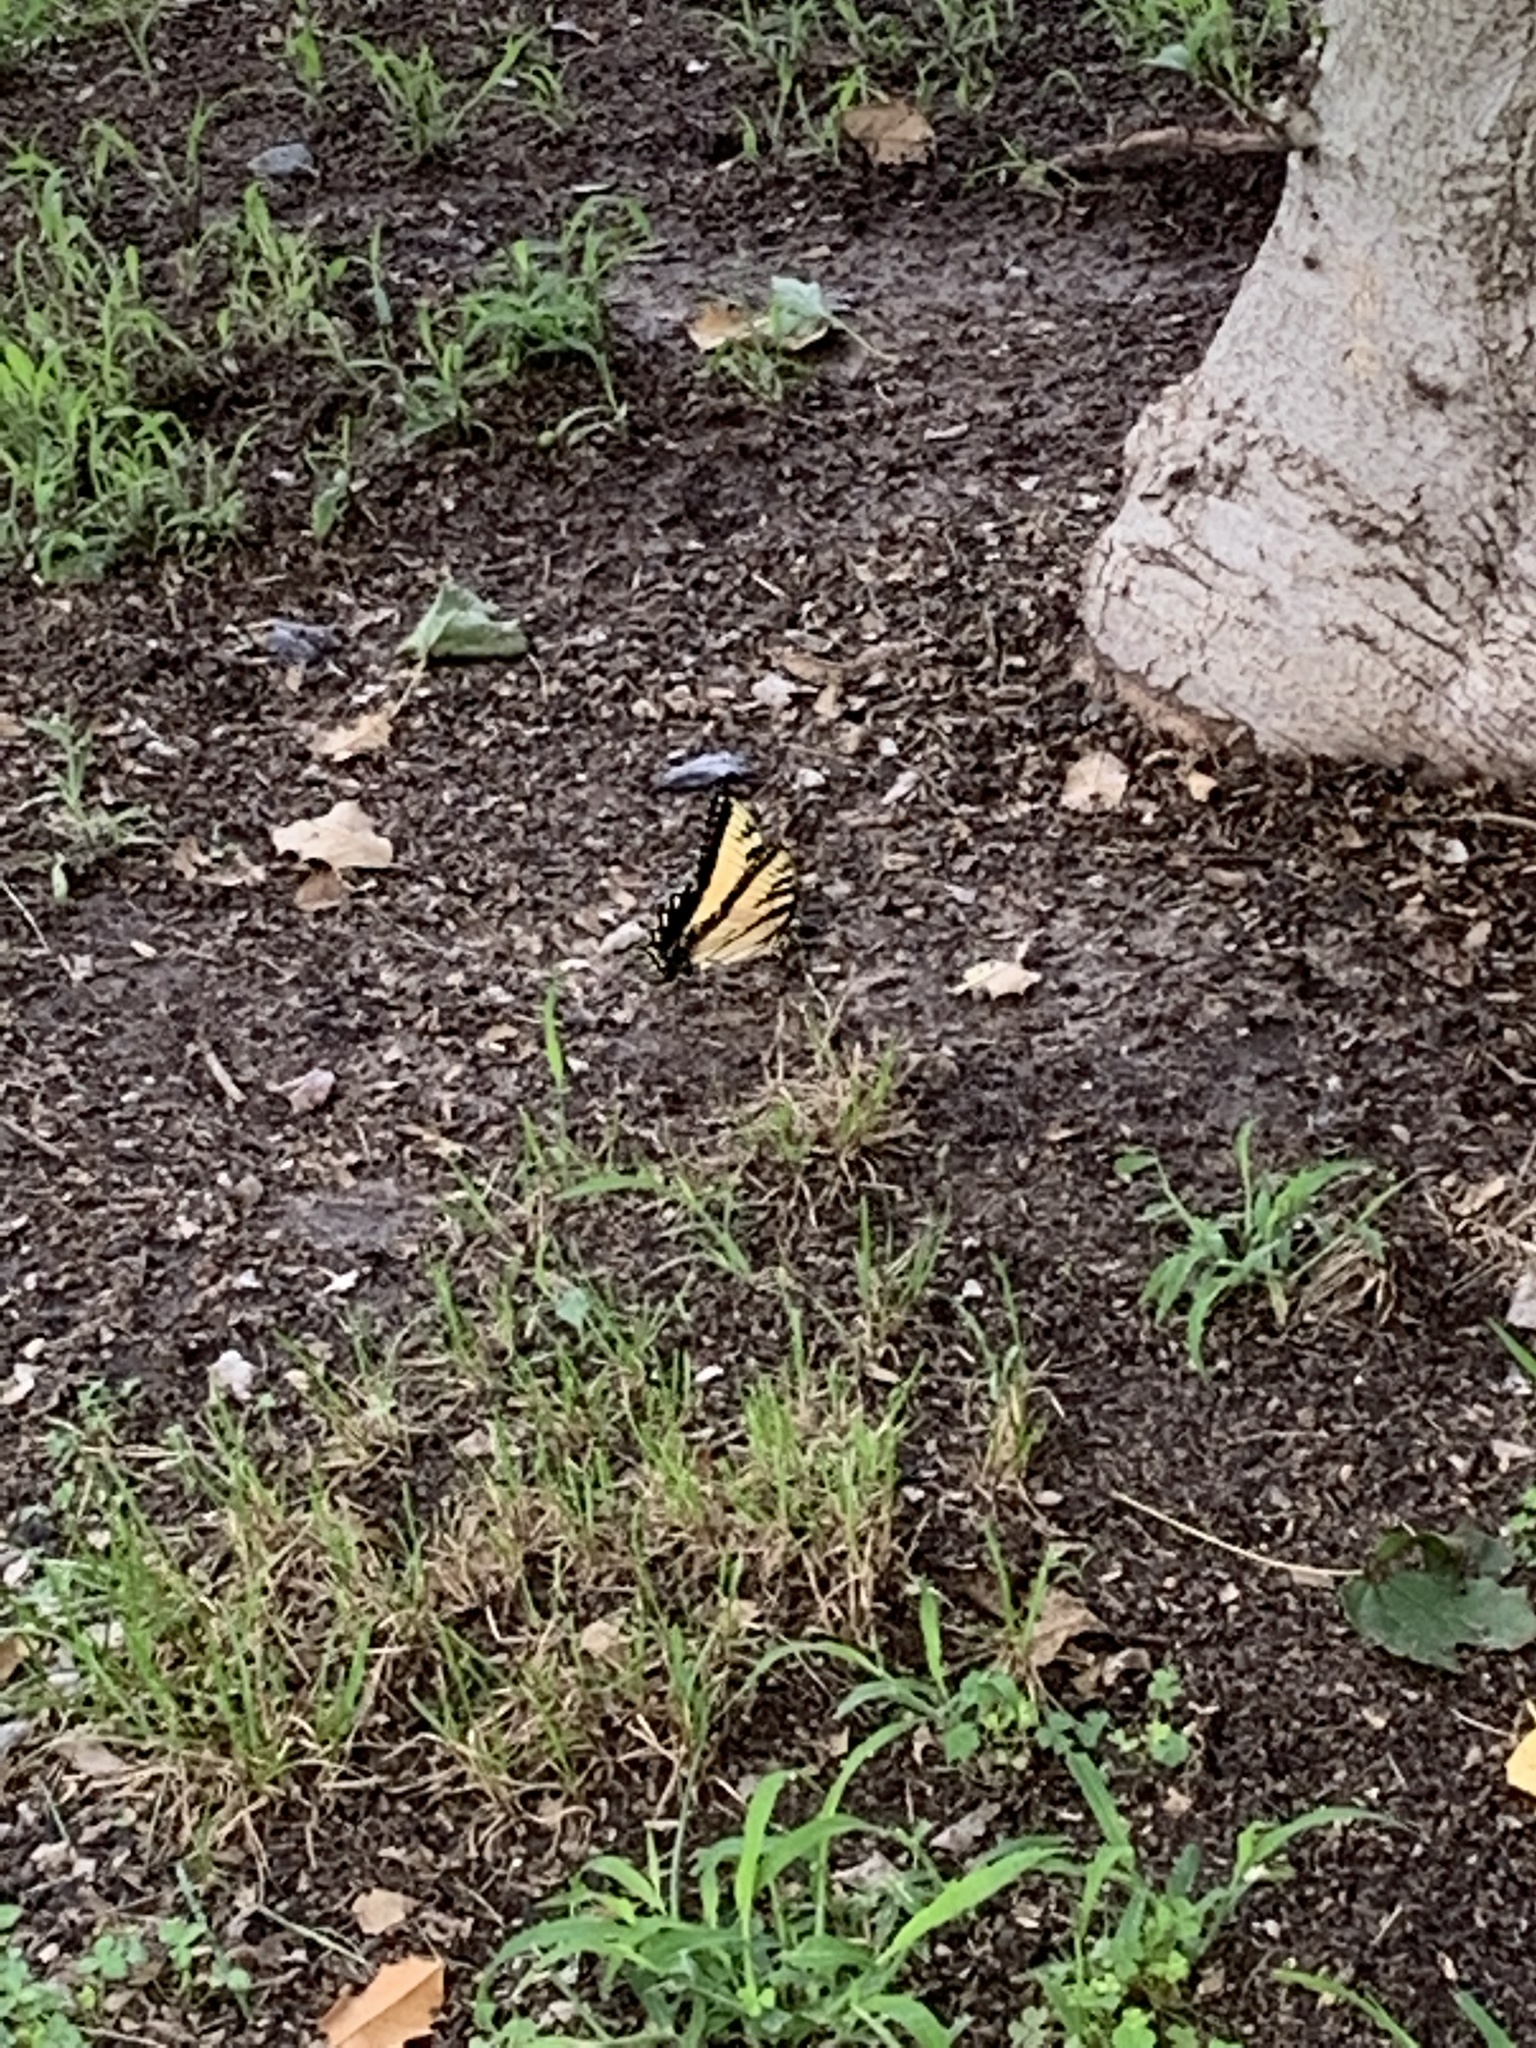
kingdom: Animalia
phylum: Arthropoda
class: Insecta
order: Lepidoptera
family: Papilionidae
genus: Papilio
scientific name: Papilio glaucus
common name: Tiger swallowtail
